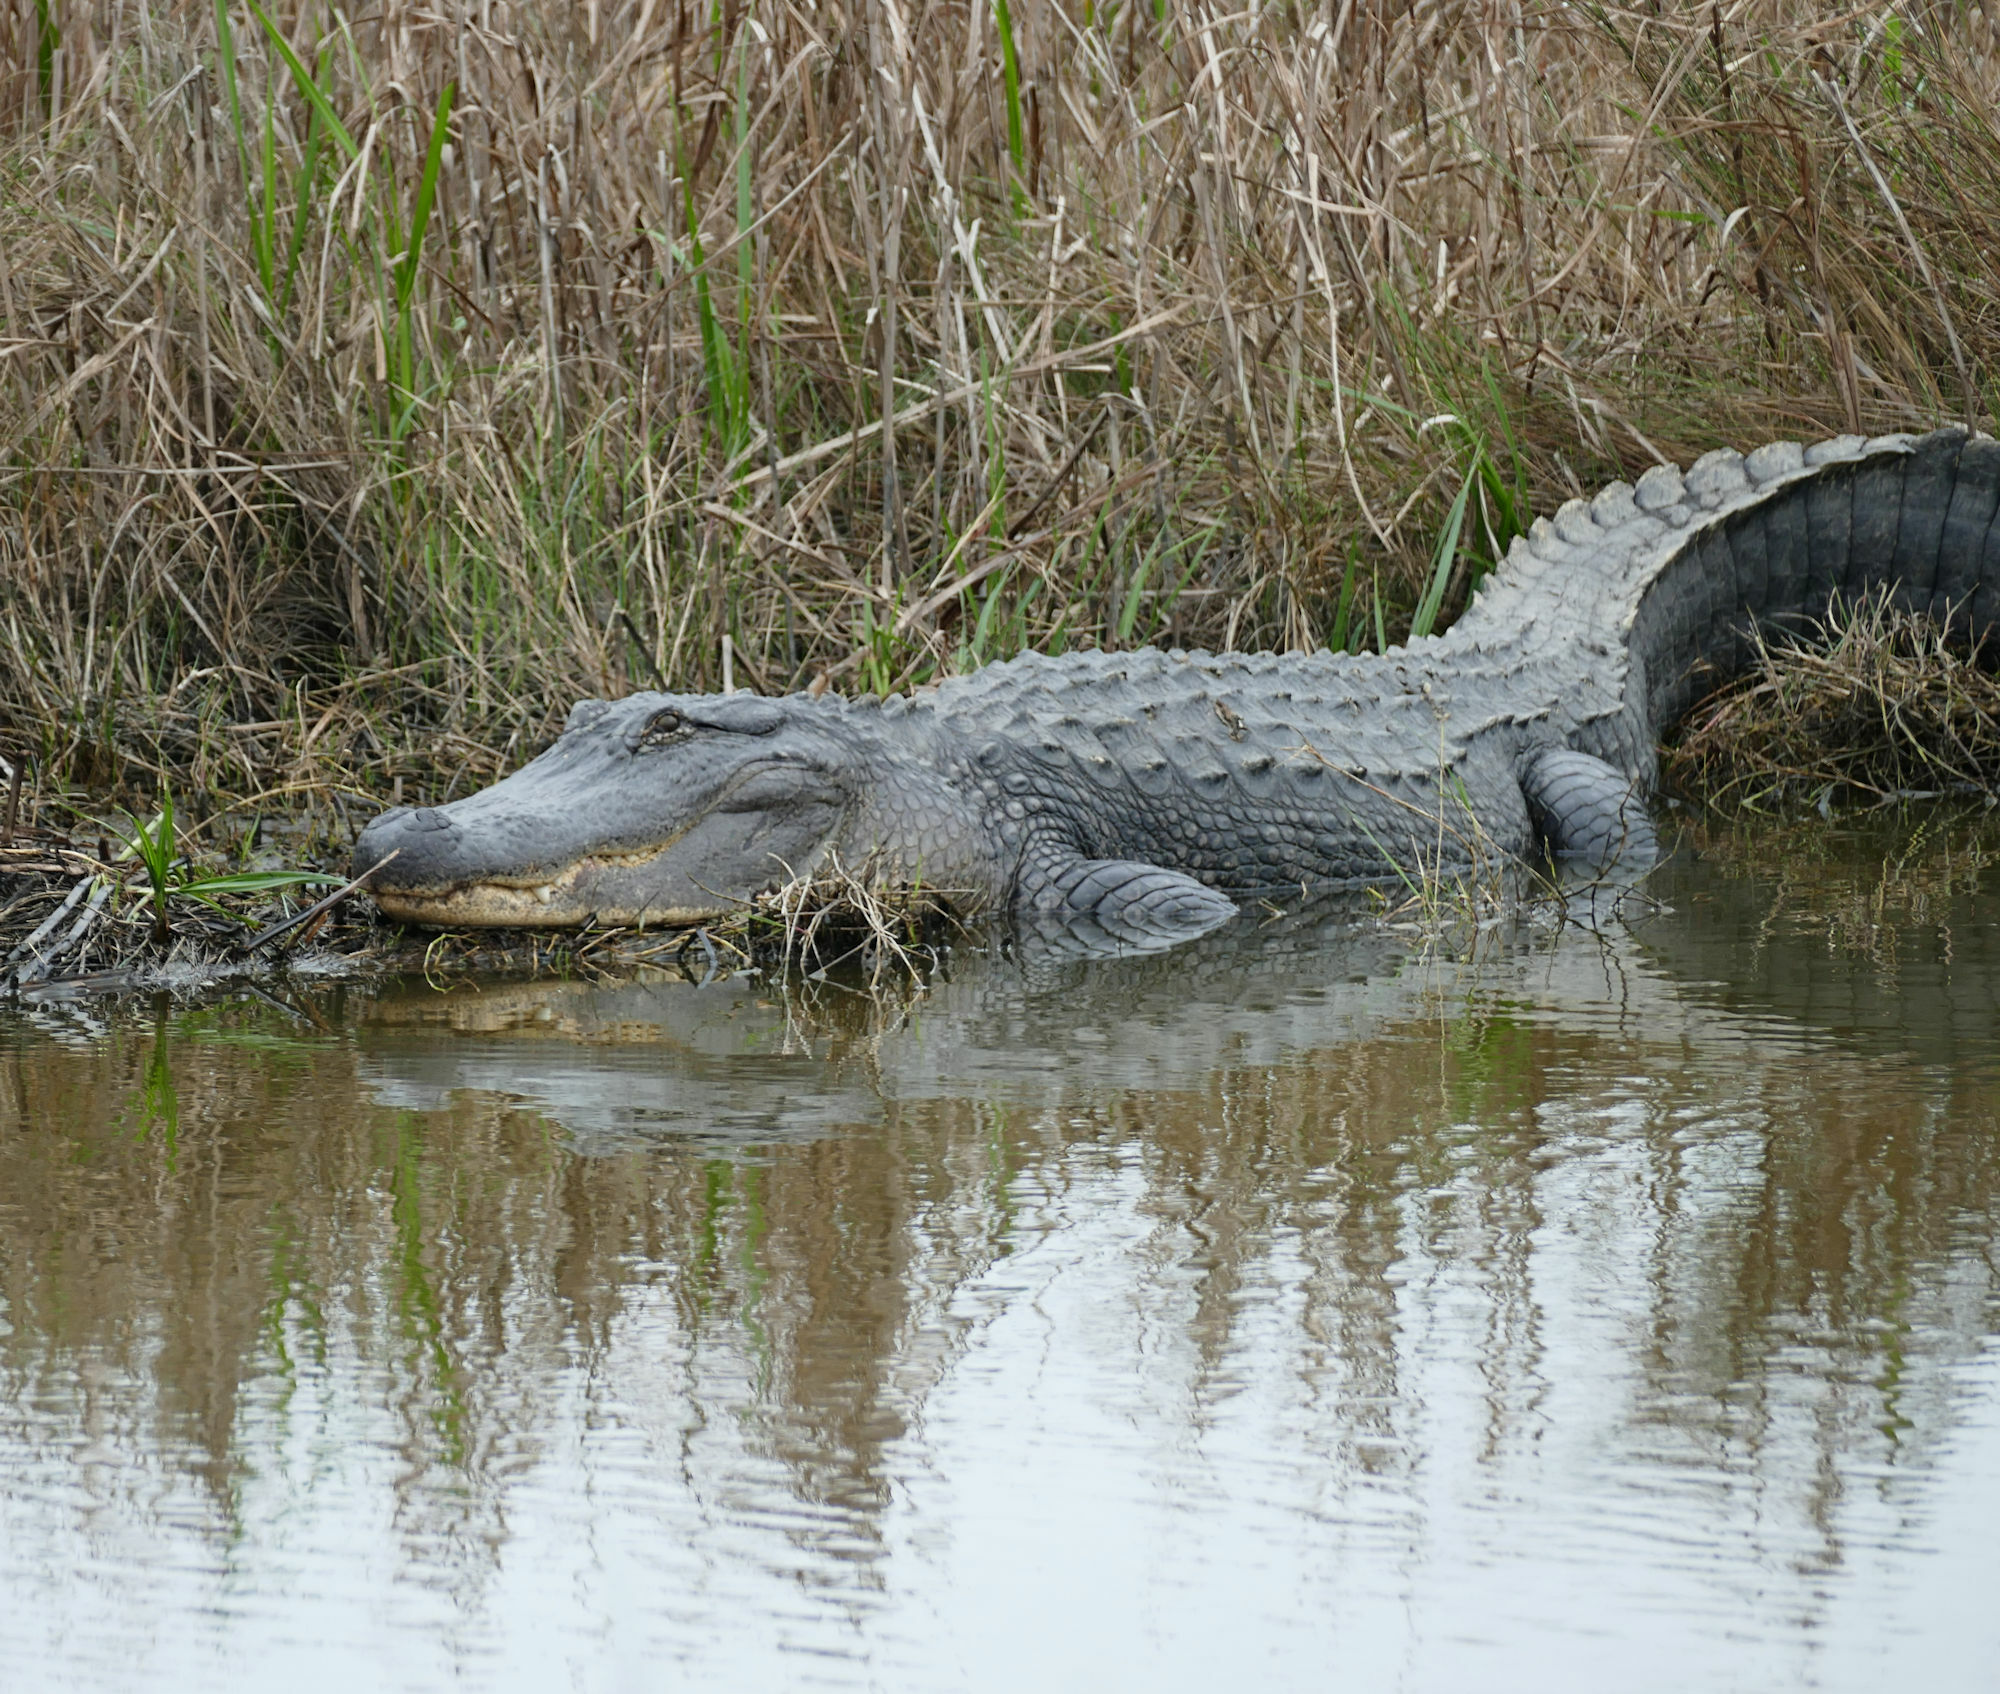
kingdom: Animalia
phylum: Chordata
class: Crocodylia
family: Alligatoridae
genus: Alligator
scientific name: Alligator mississippiensis
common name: American alligator
